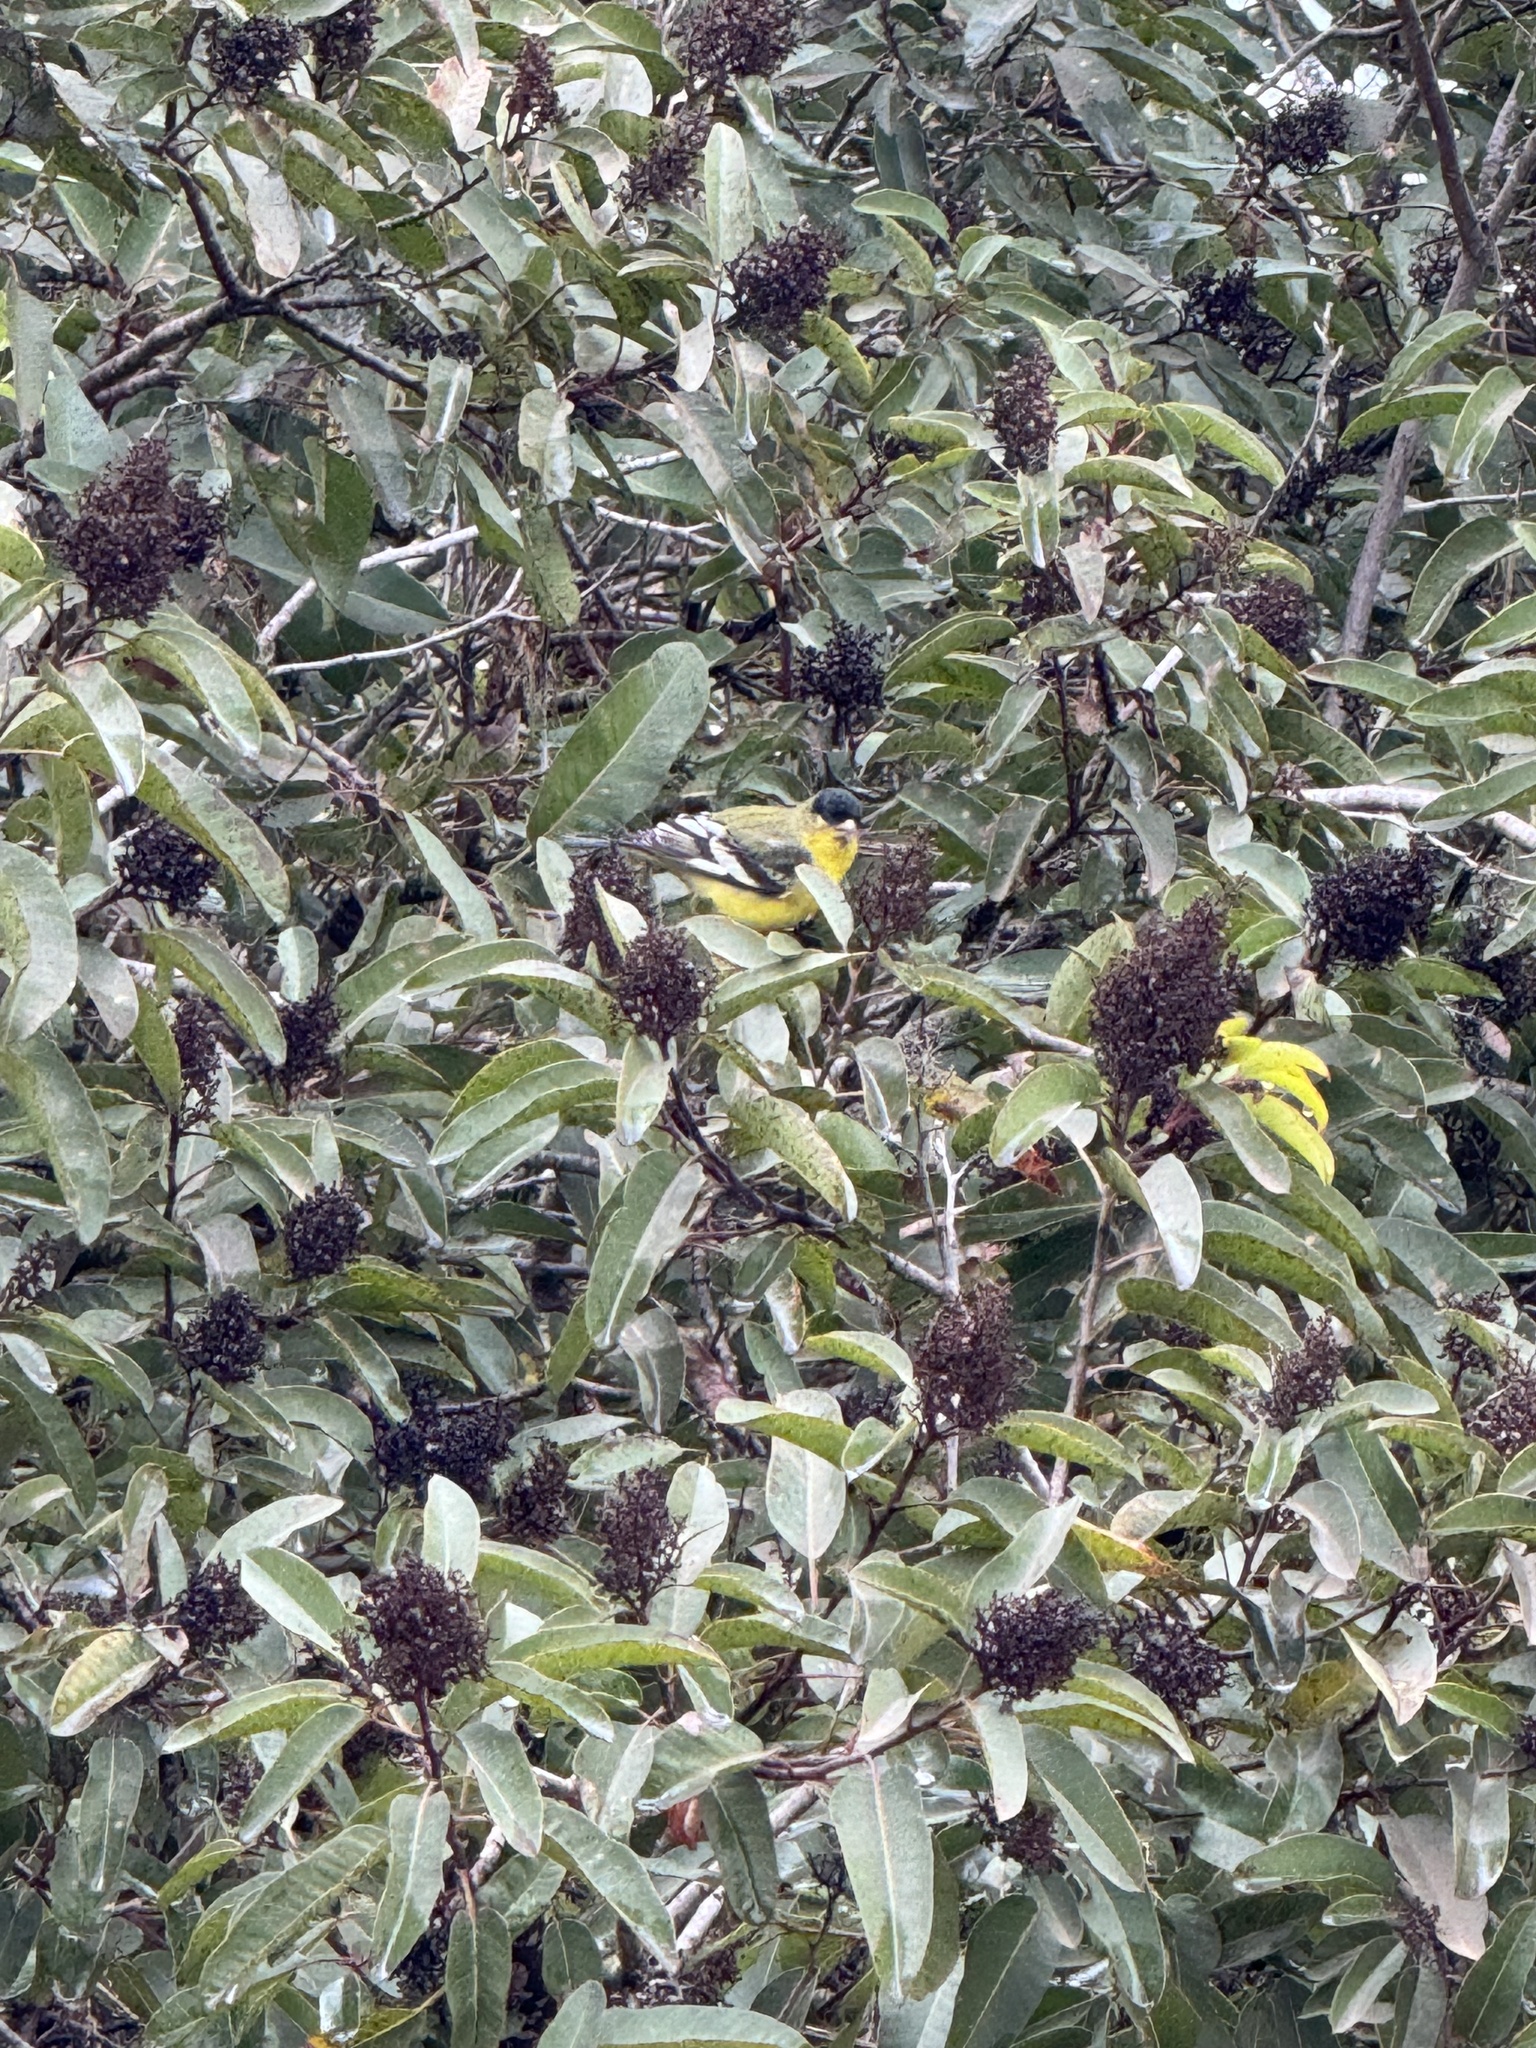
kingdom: Animalia
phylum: Chordata
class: Aves
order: Passeriformes
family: Fringillidae
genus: Spinus
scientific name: Spinus psaltria
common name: Lesser goldfinch
